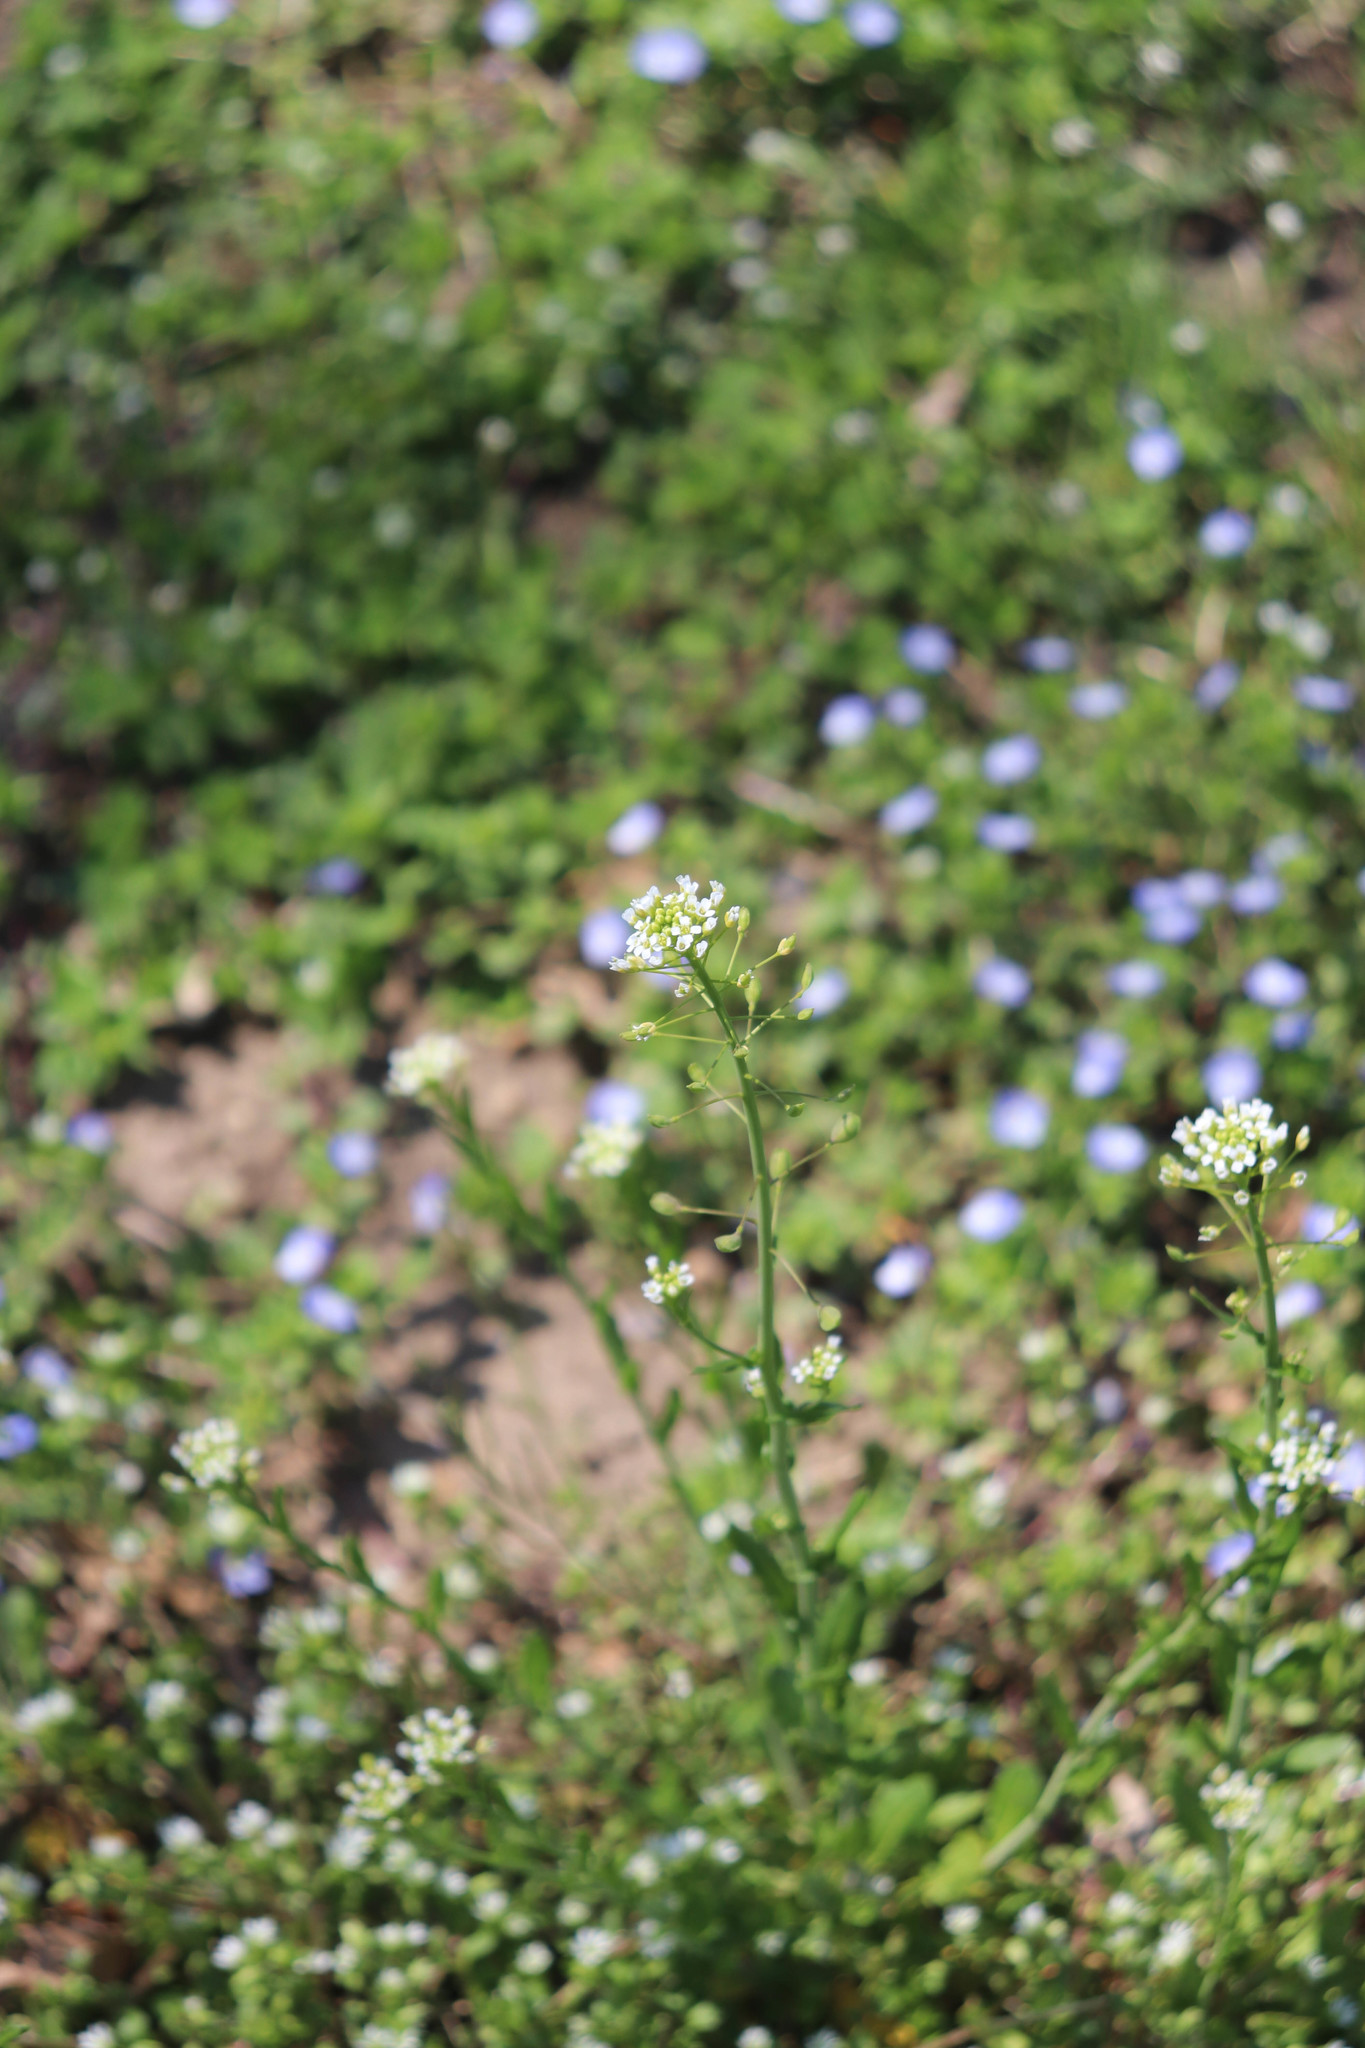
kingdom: Plantae
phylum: Tracheophyta
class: Magnoliopsida
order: Brassicales
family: Brassicaceae
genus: Mummenhoffia
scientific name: Mummenhoffia alliacea
